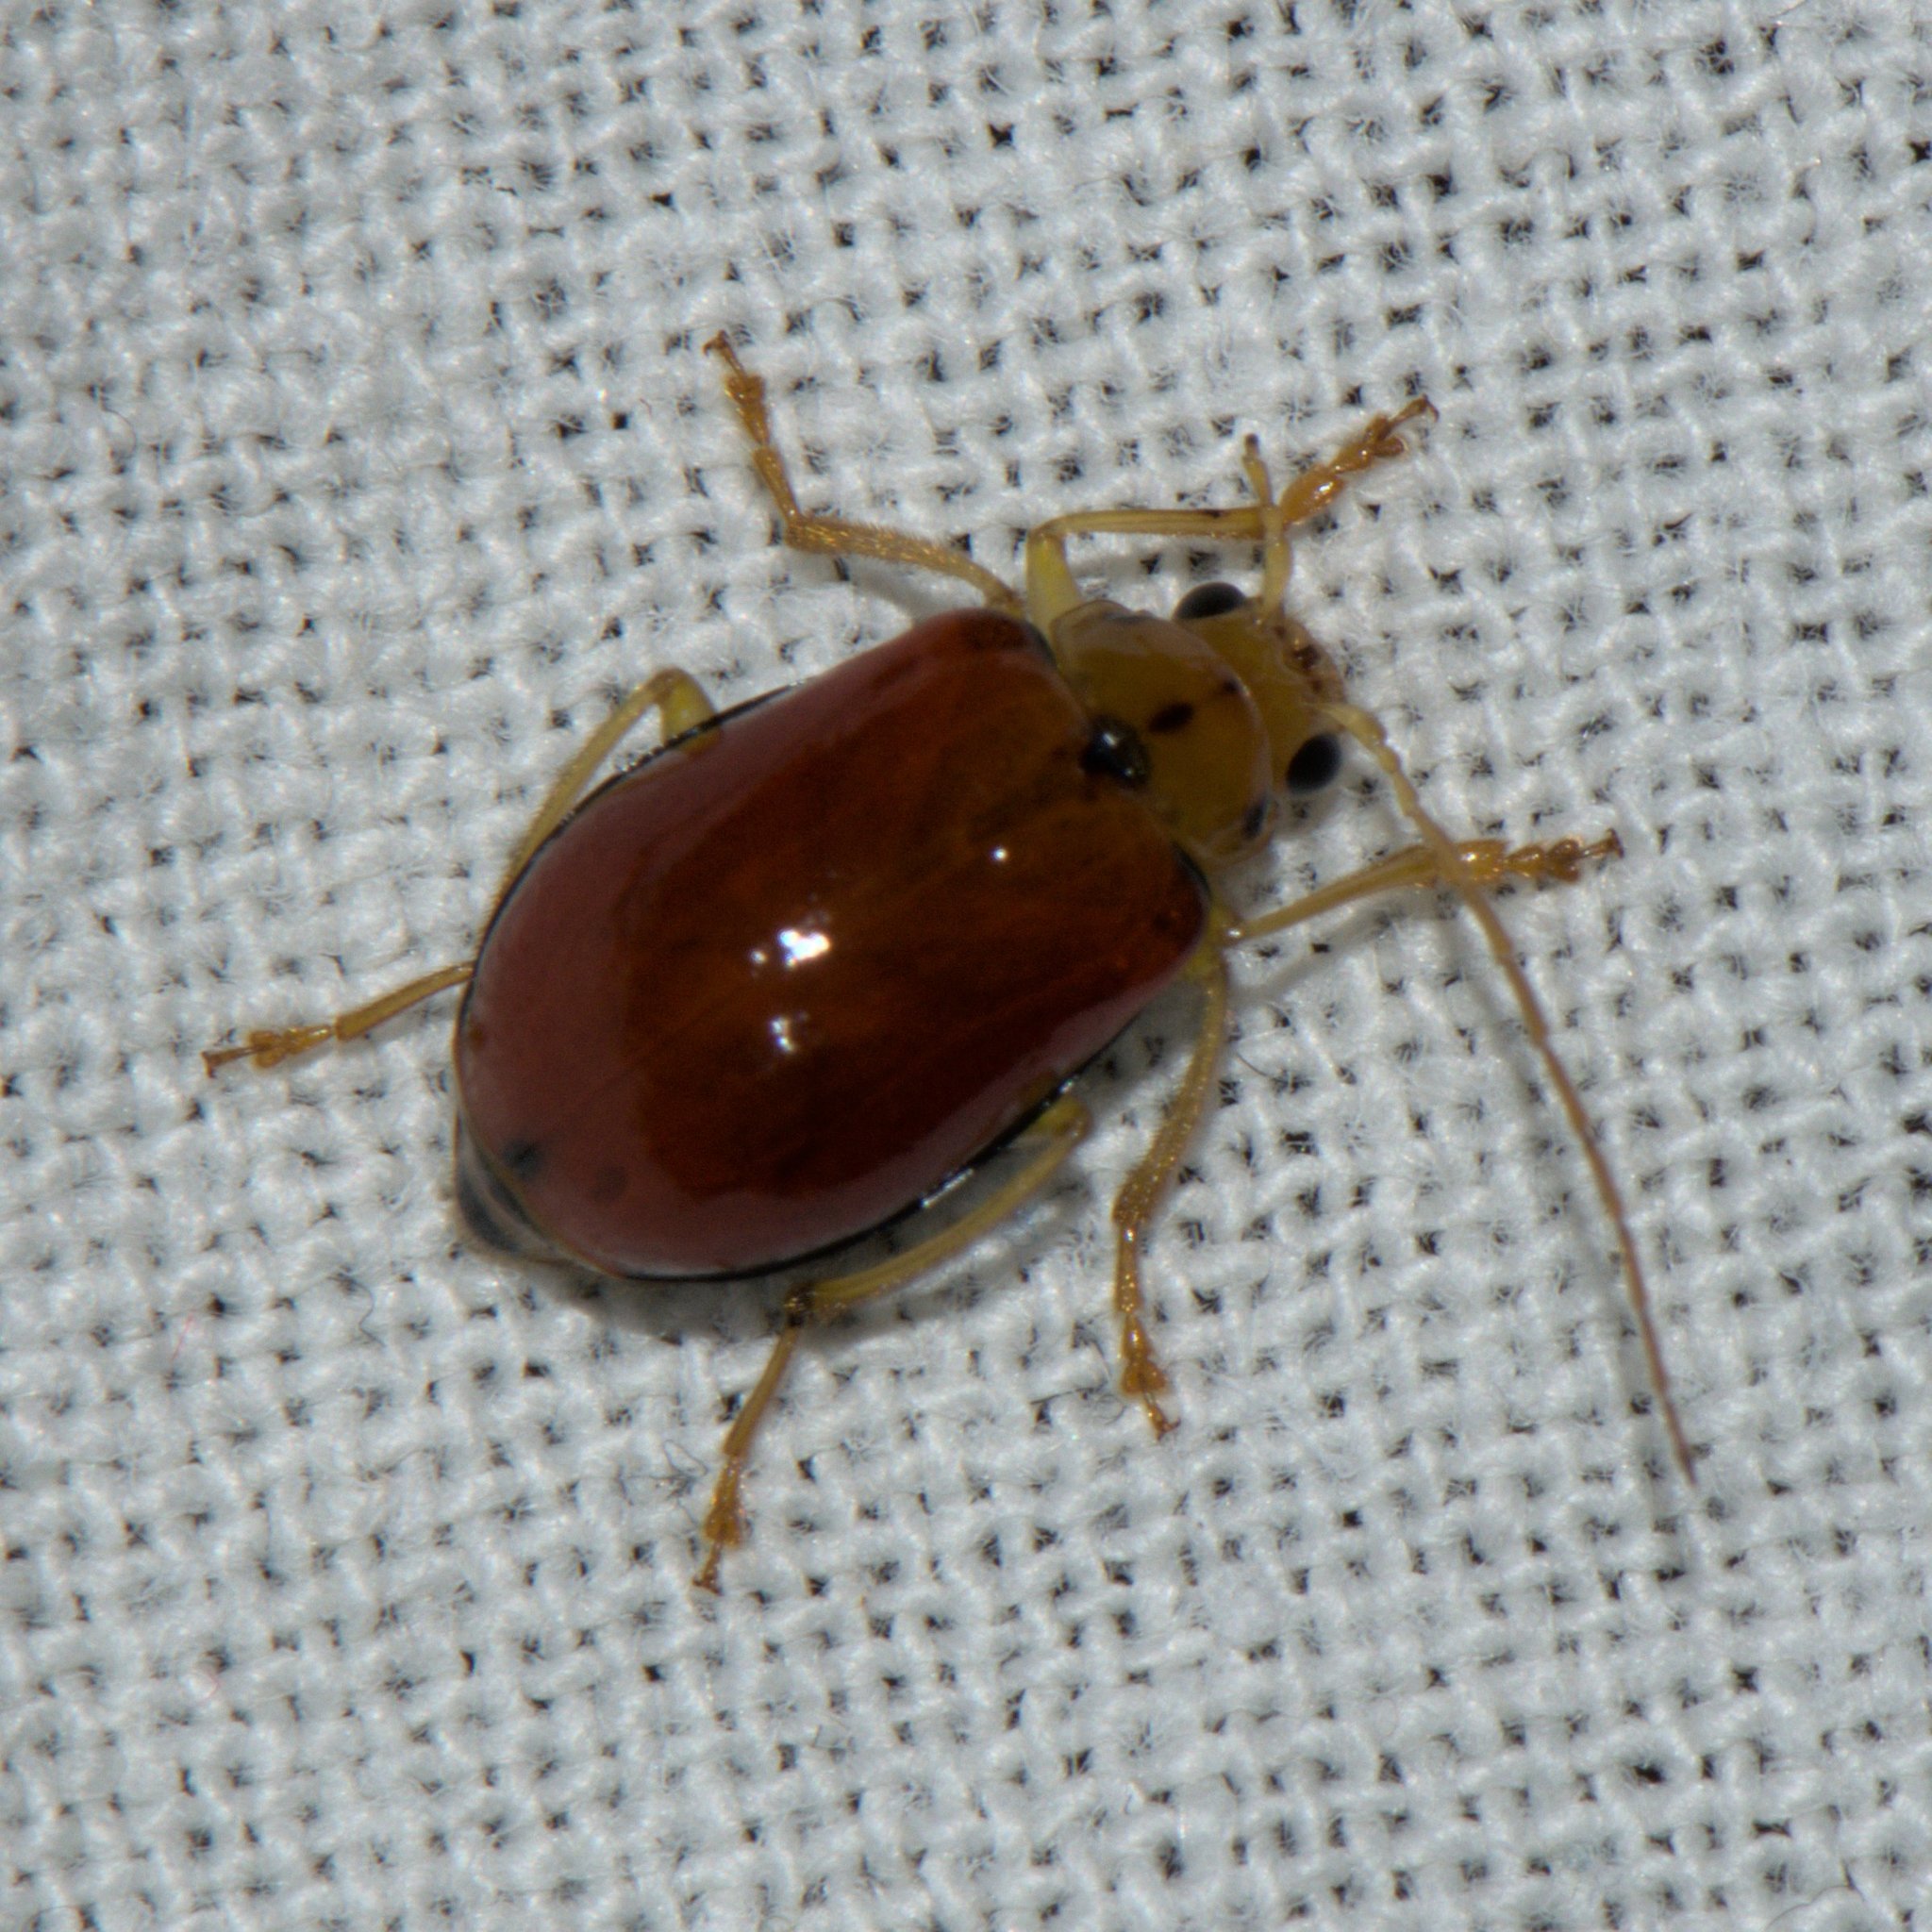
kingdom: Animalia
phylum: Arthropoda
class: Insecta
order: Coleoptera
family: Chrysomelidae
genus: Macrima
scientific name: Macrima
